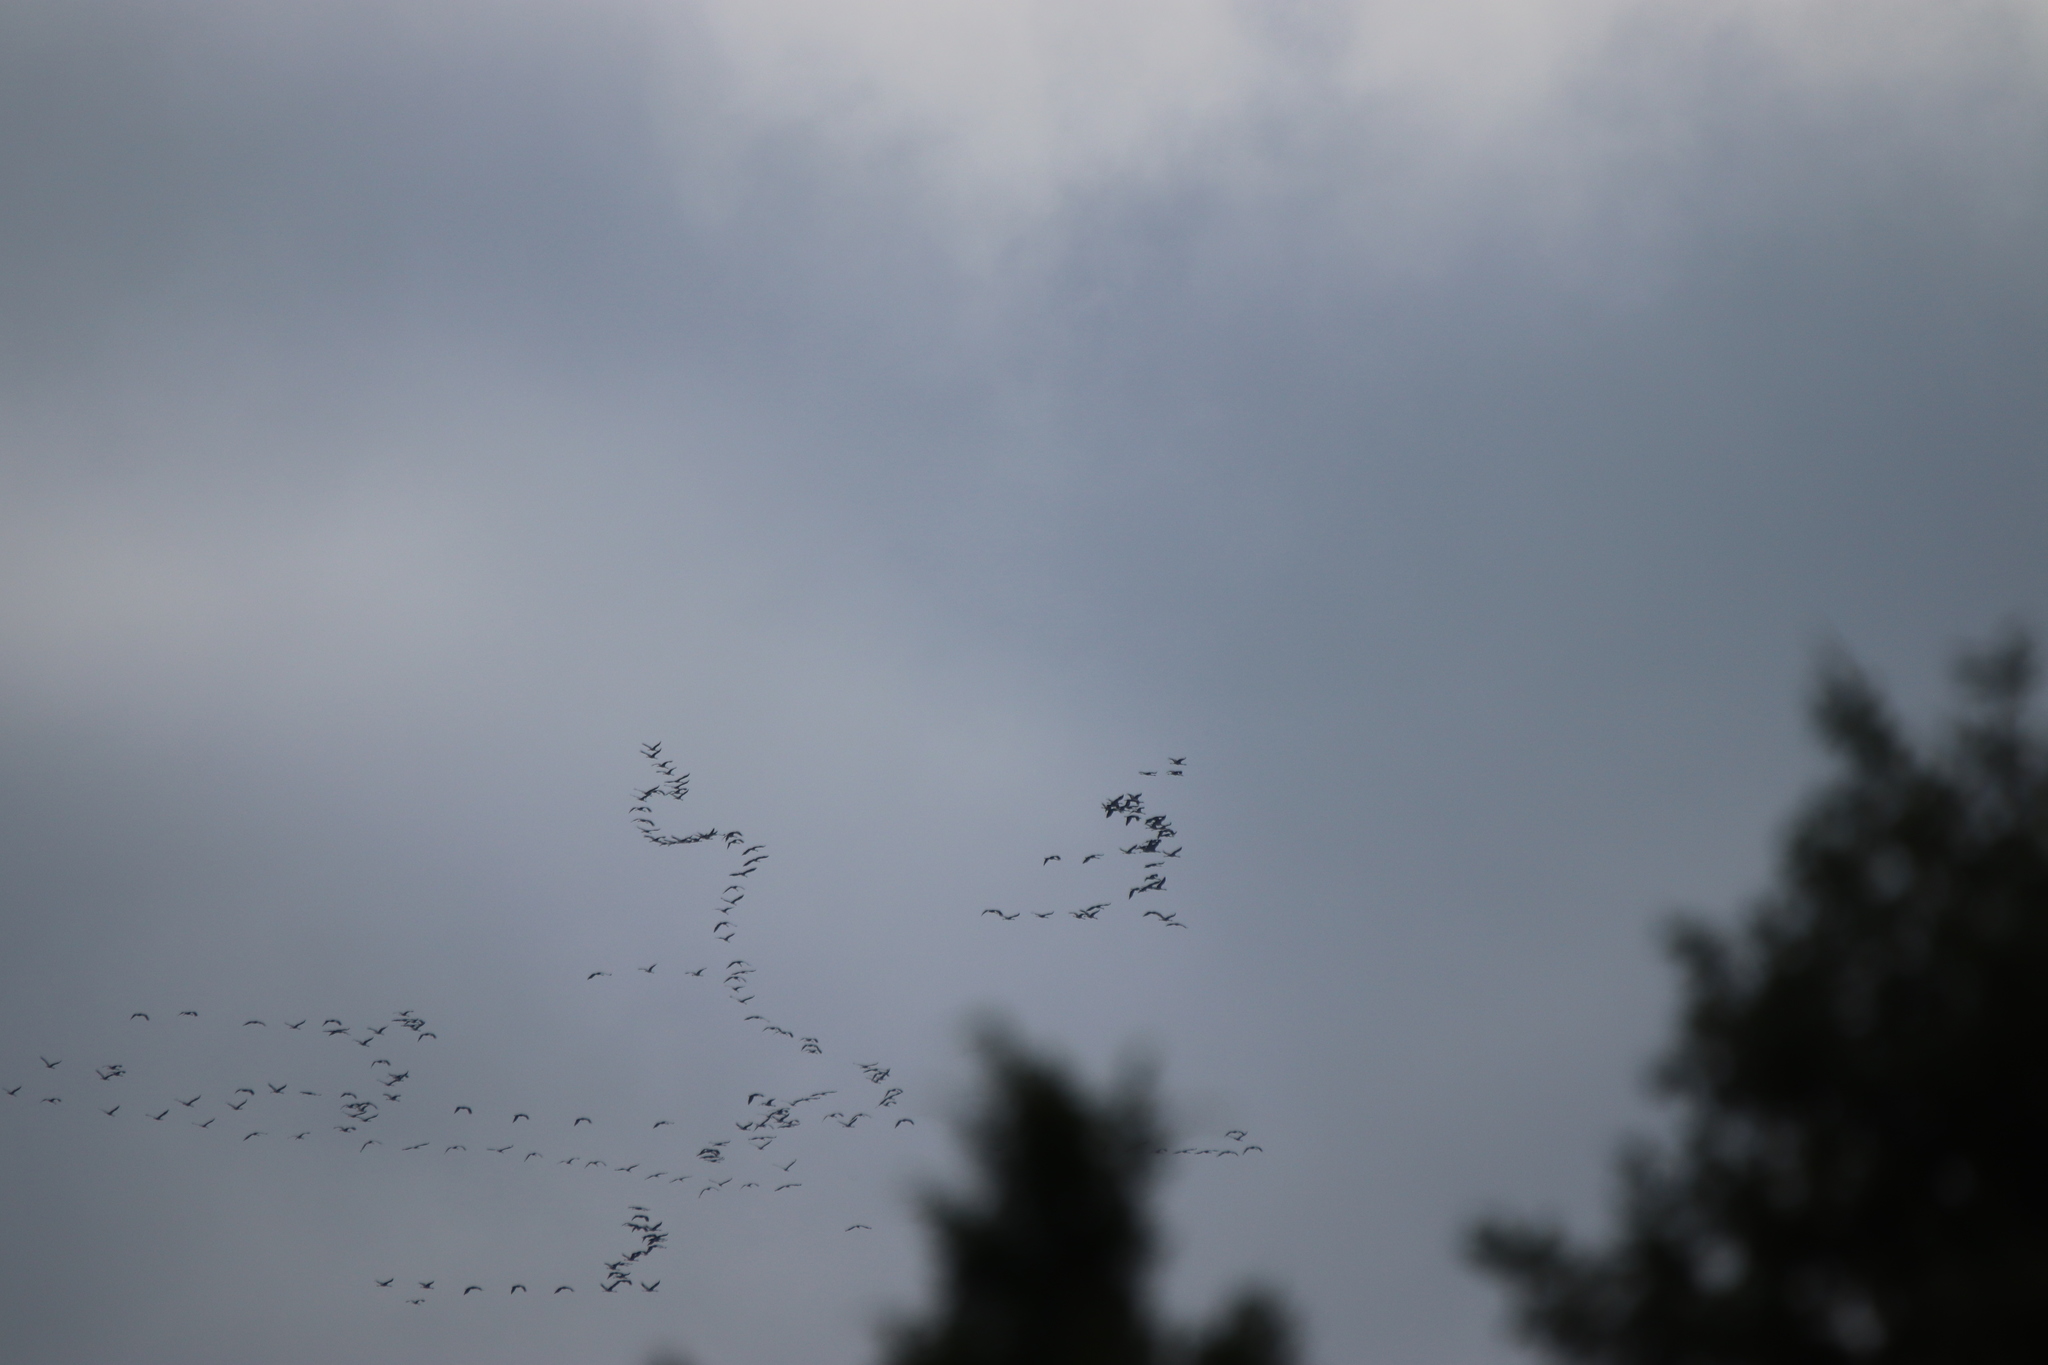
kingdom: Animalia
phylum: Chordata
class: Aves
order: Gruiformes
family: Gruidae
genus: Grus
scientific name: Grus grus
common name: Common crane
